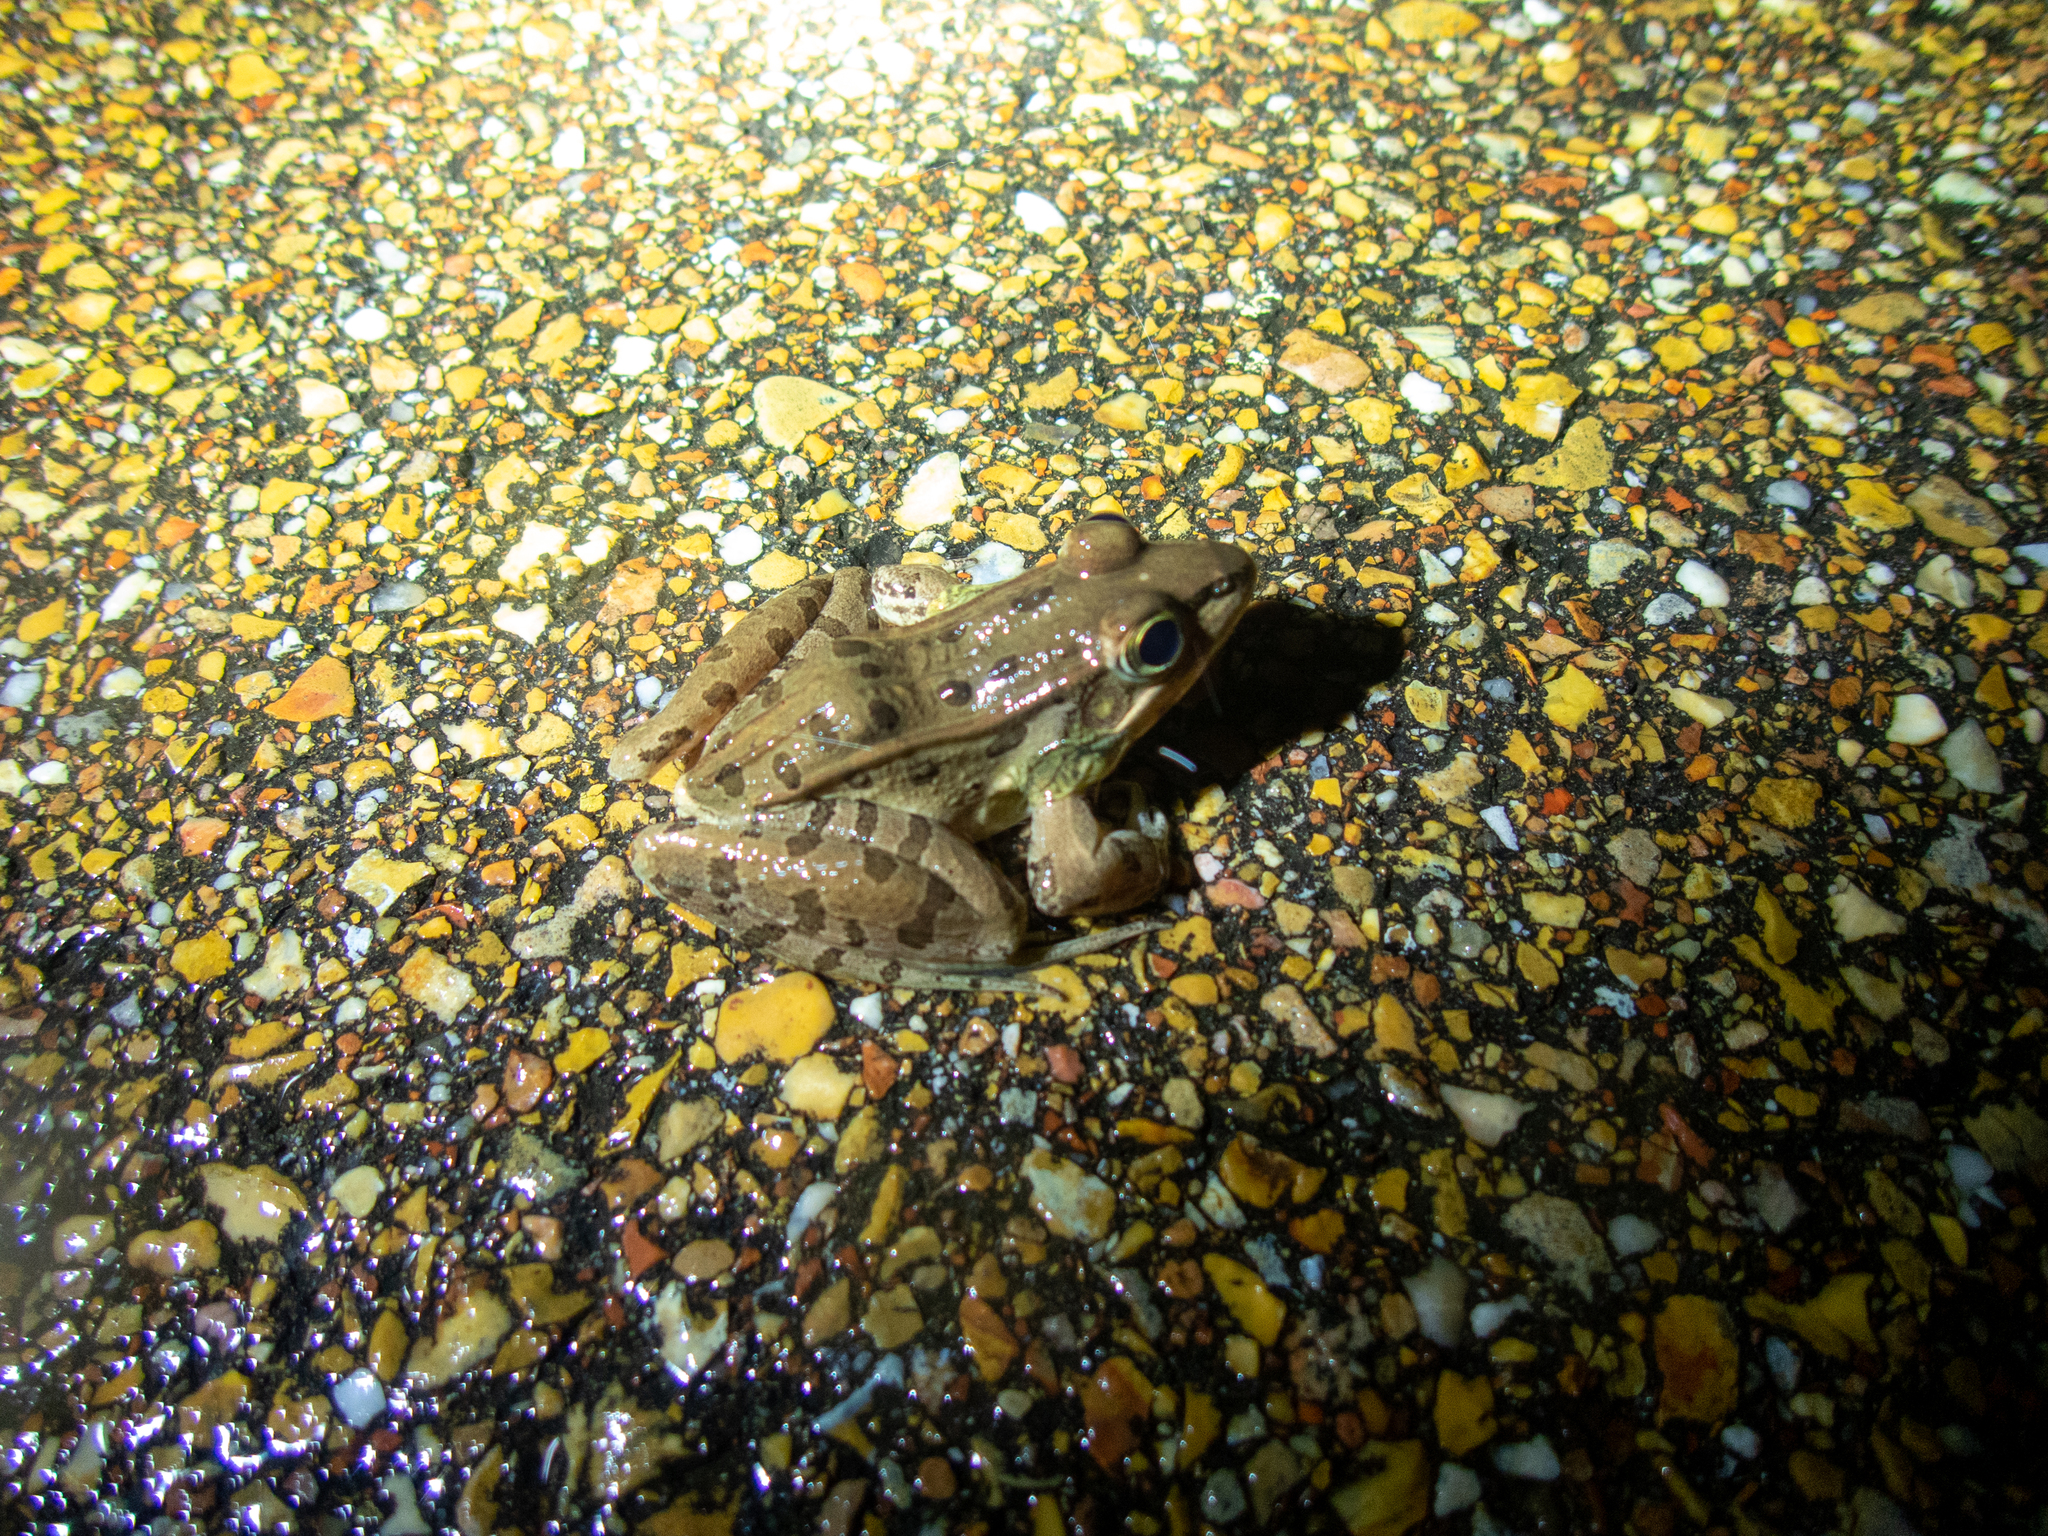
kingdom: Animalia
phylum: Chordata
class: Amphibia
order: Anura
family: Ranidae
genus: Lithobates
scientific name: Lithobates sphenocephalus
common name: Southern leopard frog
